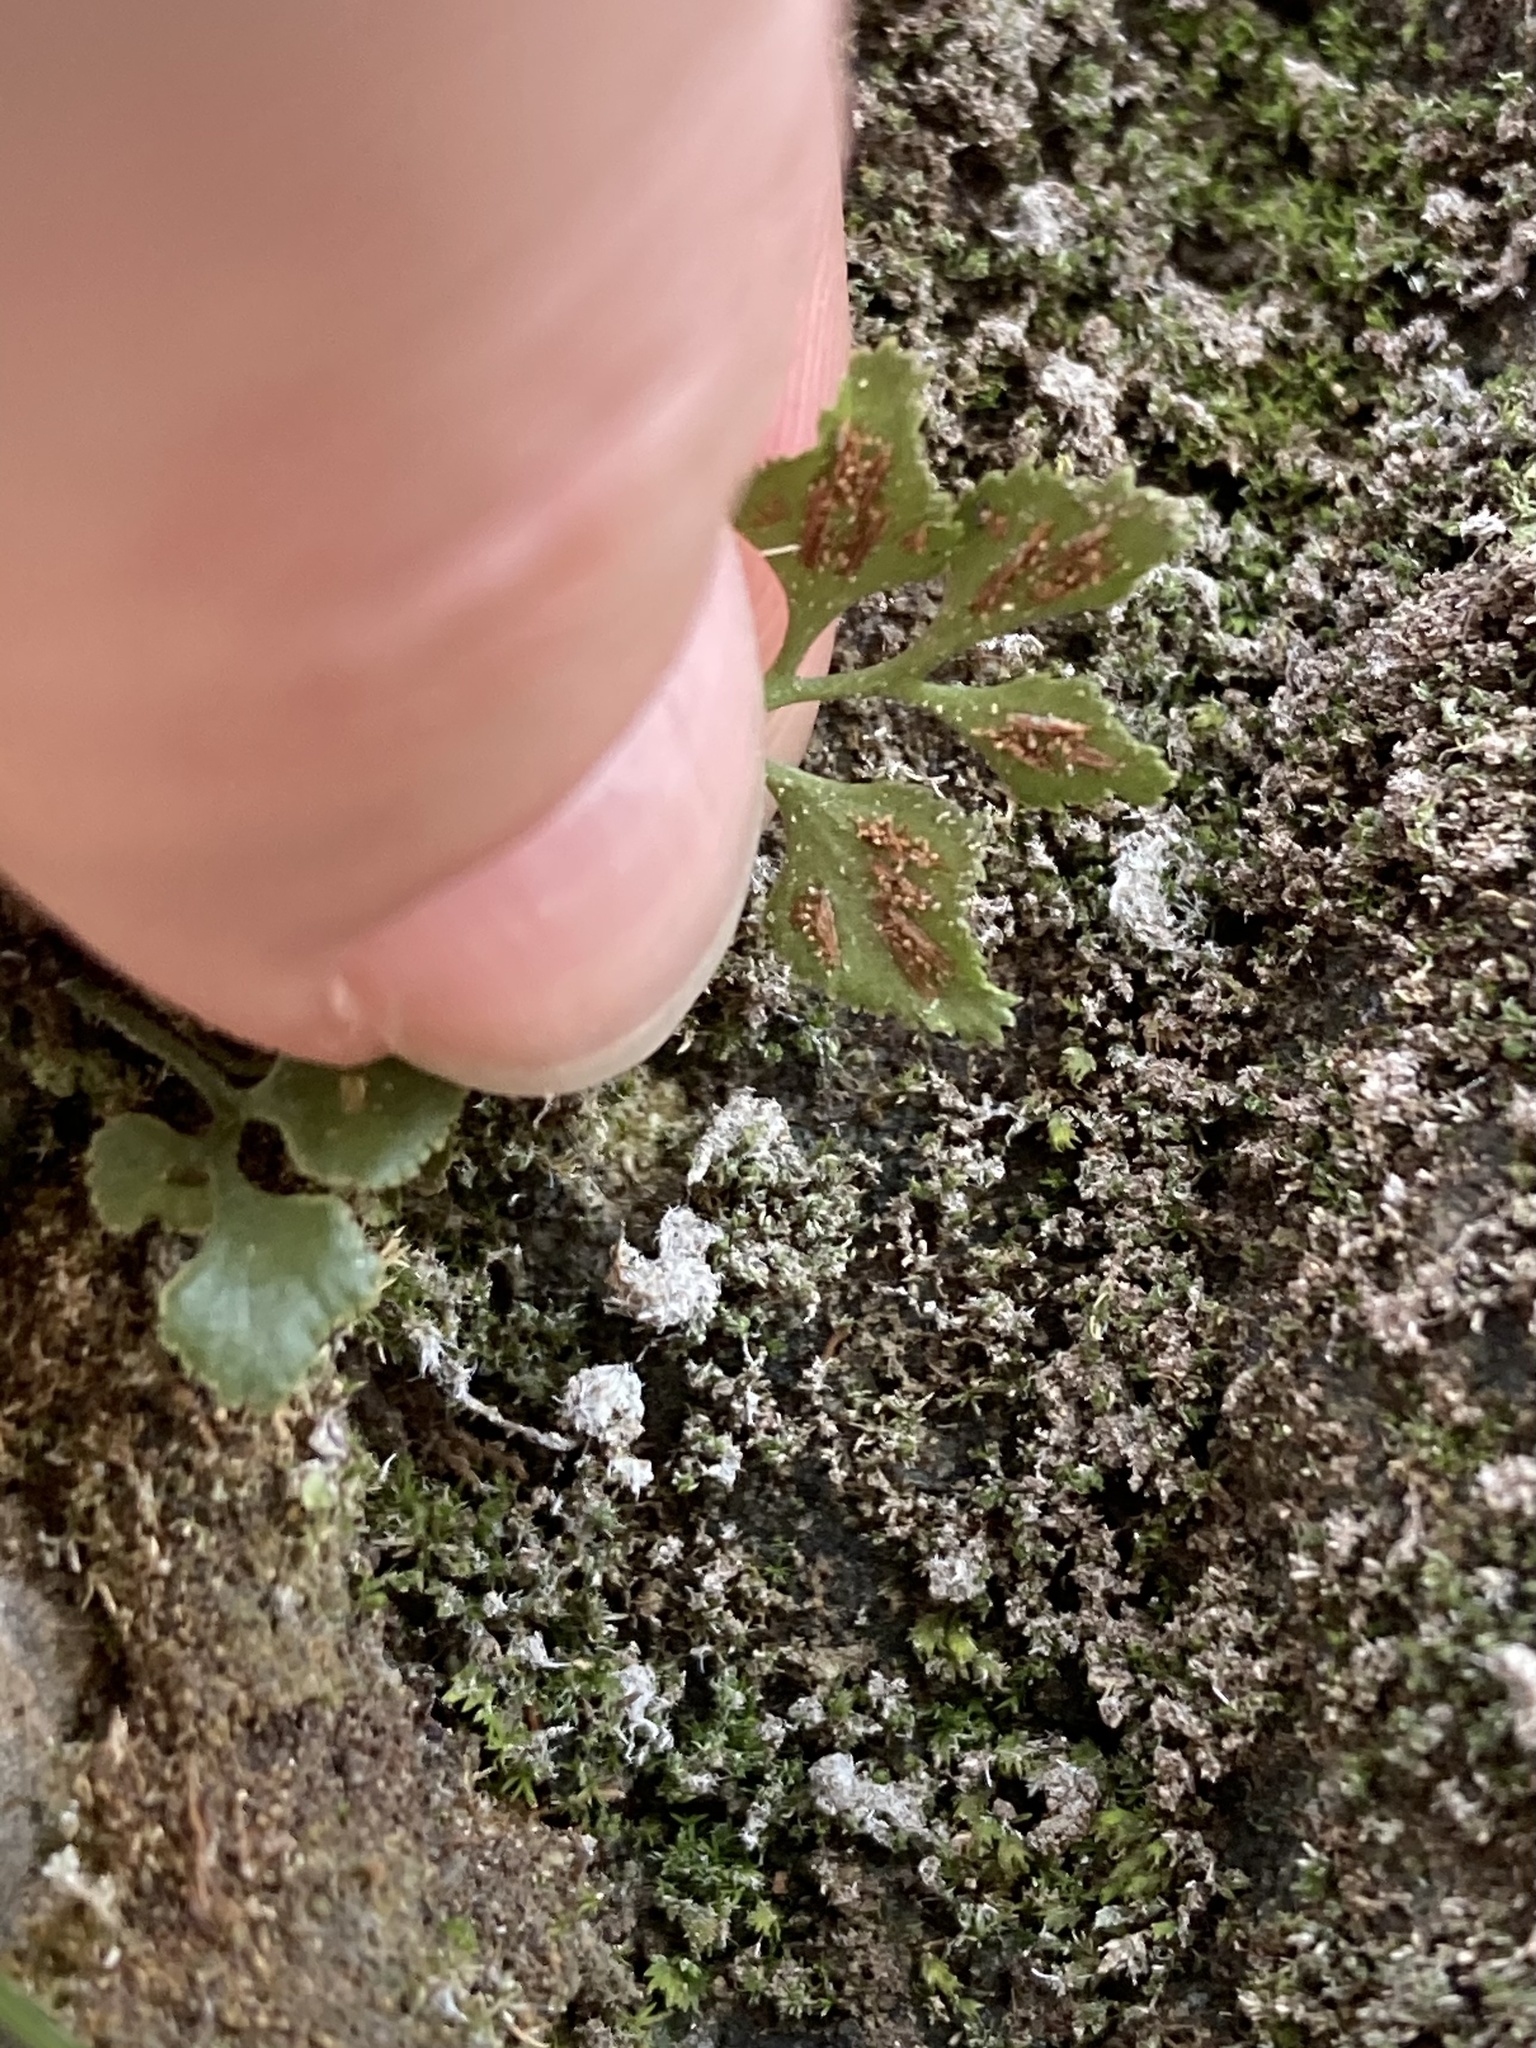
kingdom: Plantae
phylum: Tracheophyta
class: Polypodiopsida
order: Polypodiales
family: Aspleniaceae
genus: Asplenium
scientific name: Asplenium ruta-muraria
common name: Wall-rue
